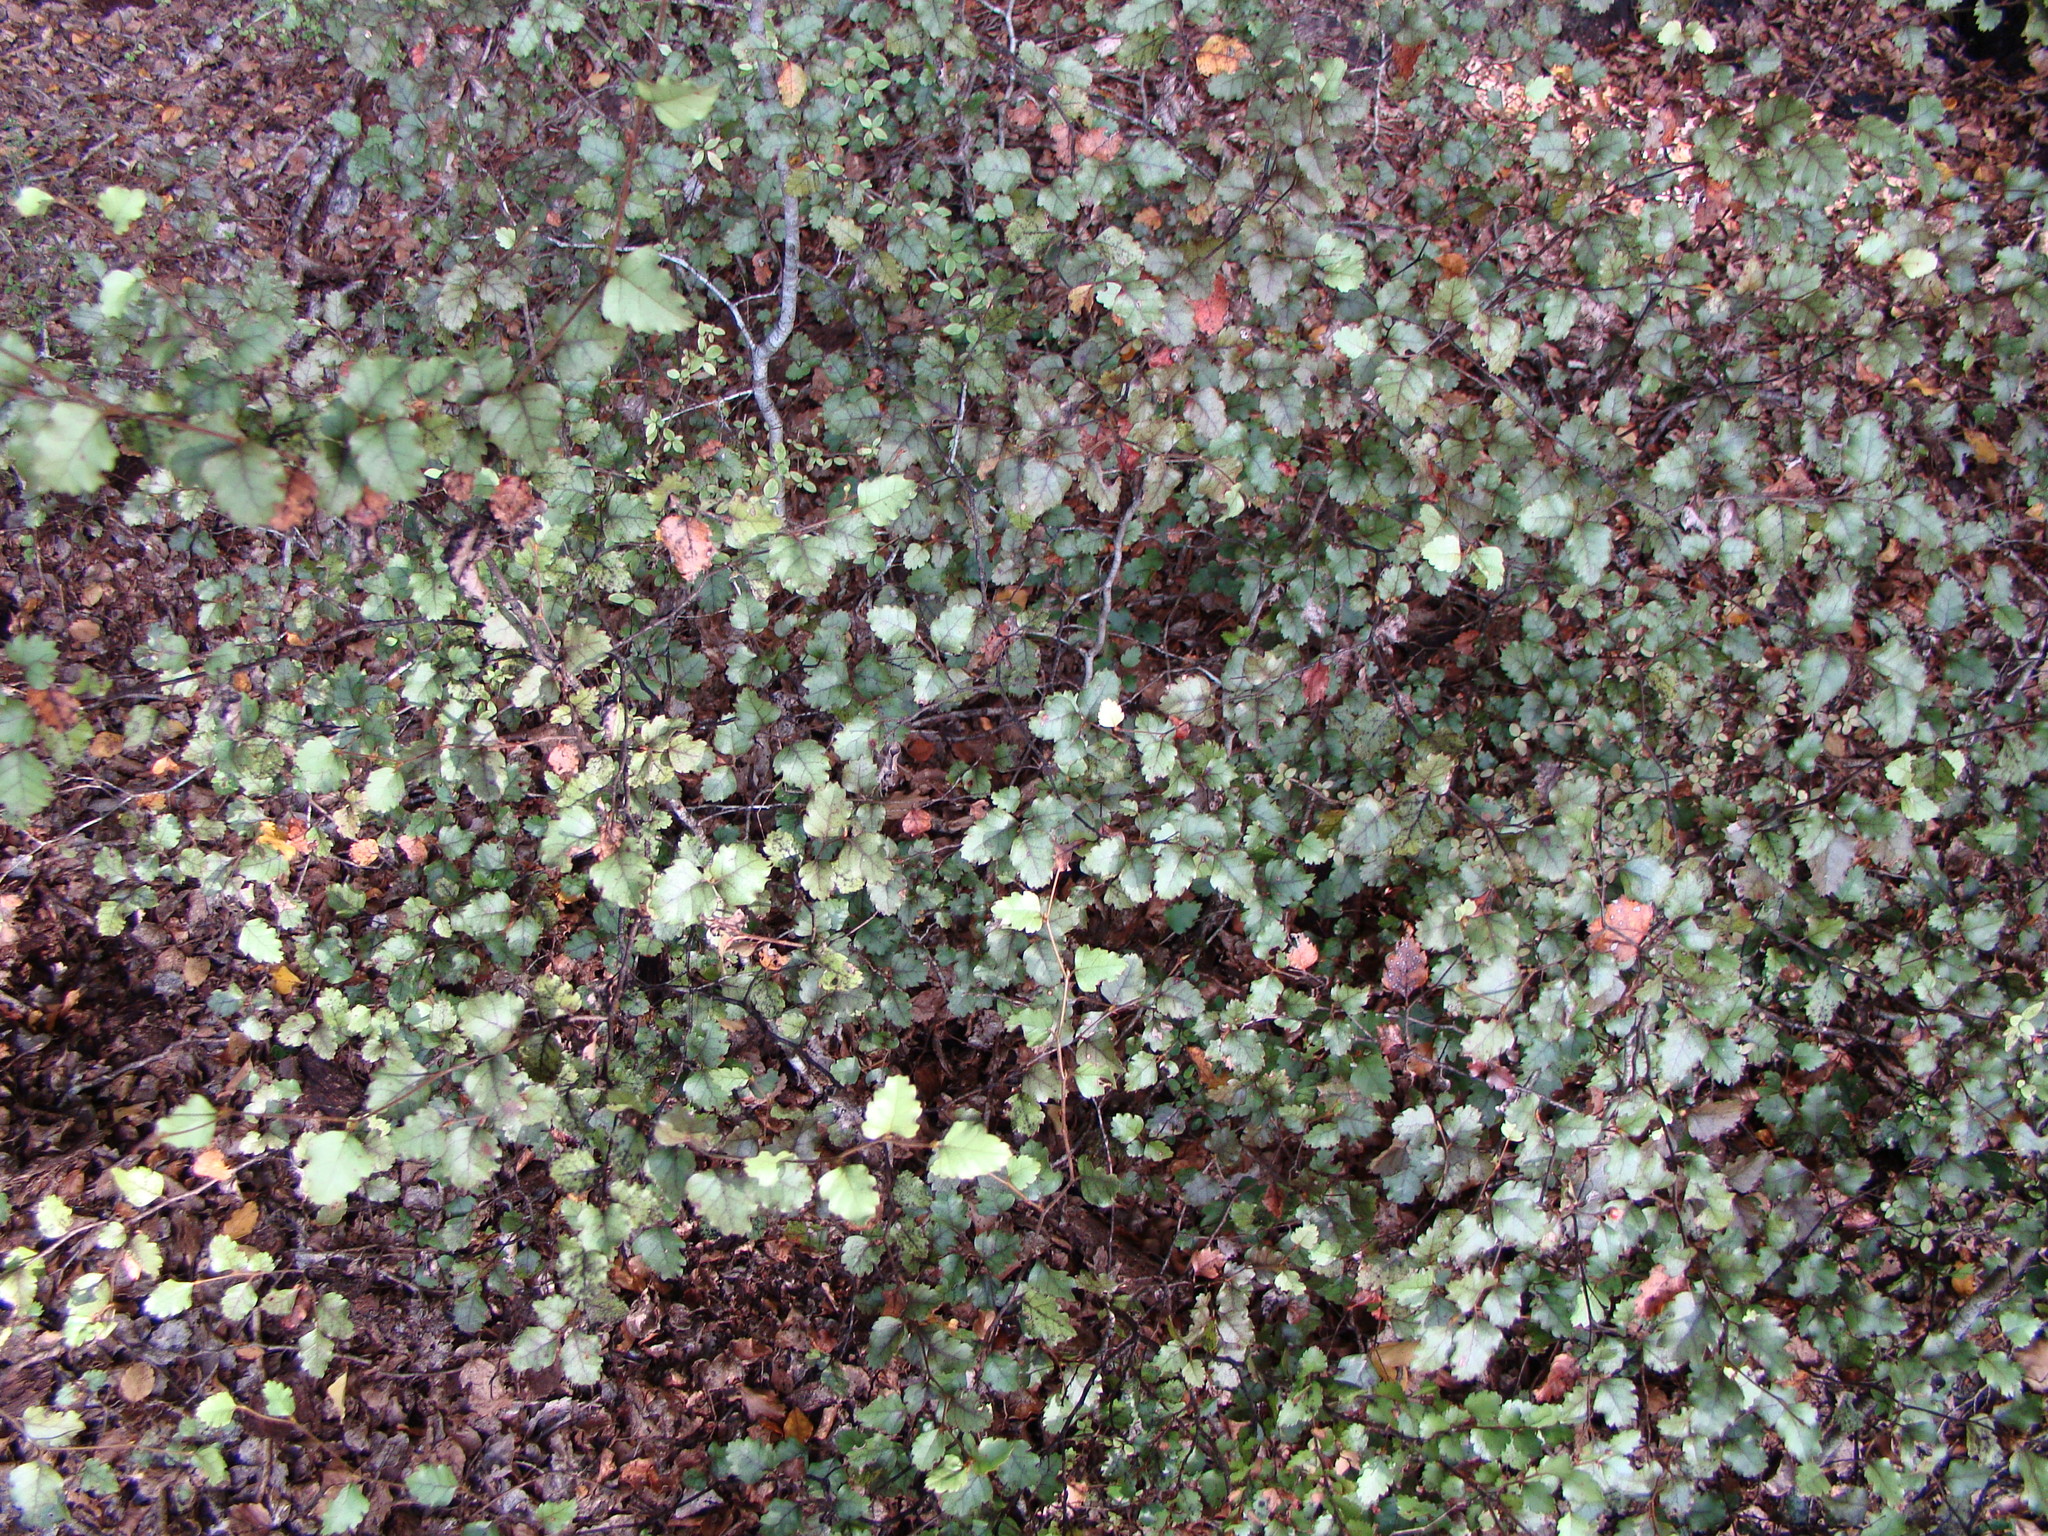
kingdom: Plantae
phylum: Tracheophyta
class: Magnoliopsida
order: Fagales
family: Nothofagaceae
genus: Nothofagus
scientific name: Nothofagus fusca
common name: Red beech
